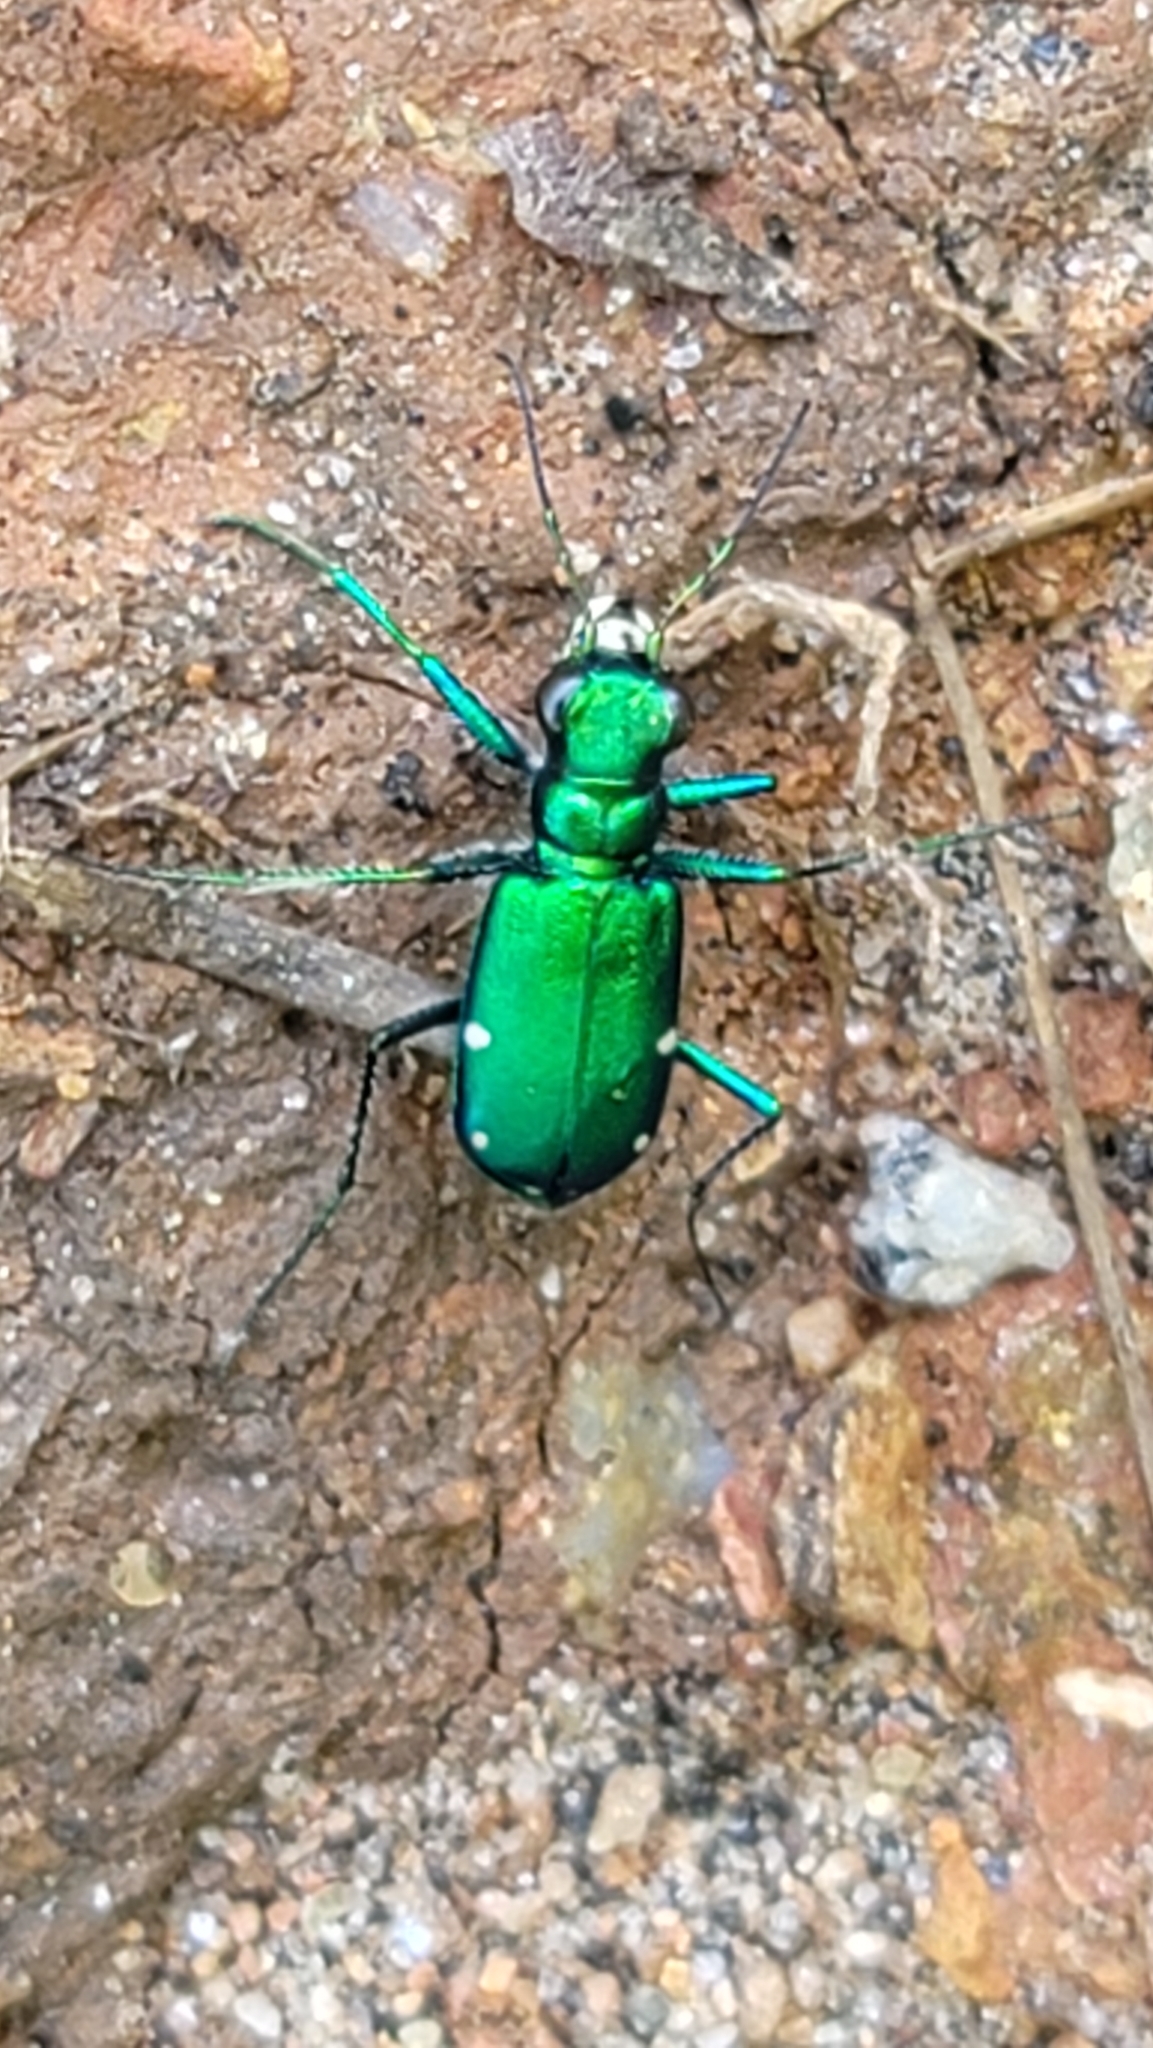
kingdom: Animalia
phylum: Arthropoda
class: Insecta
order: Coleoptera
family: Carabidae
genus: Cicindela
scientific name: Cicindela sexguttata
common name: Six-spotted tiger beetle
